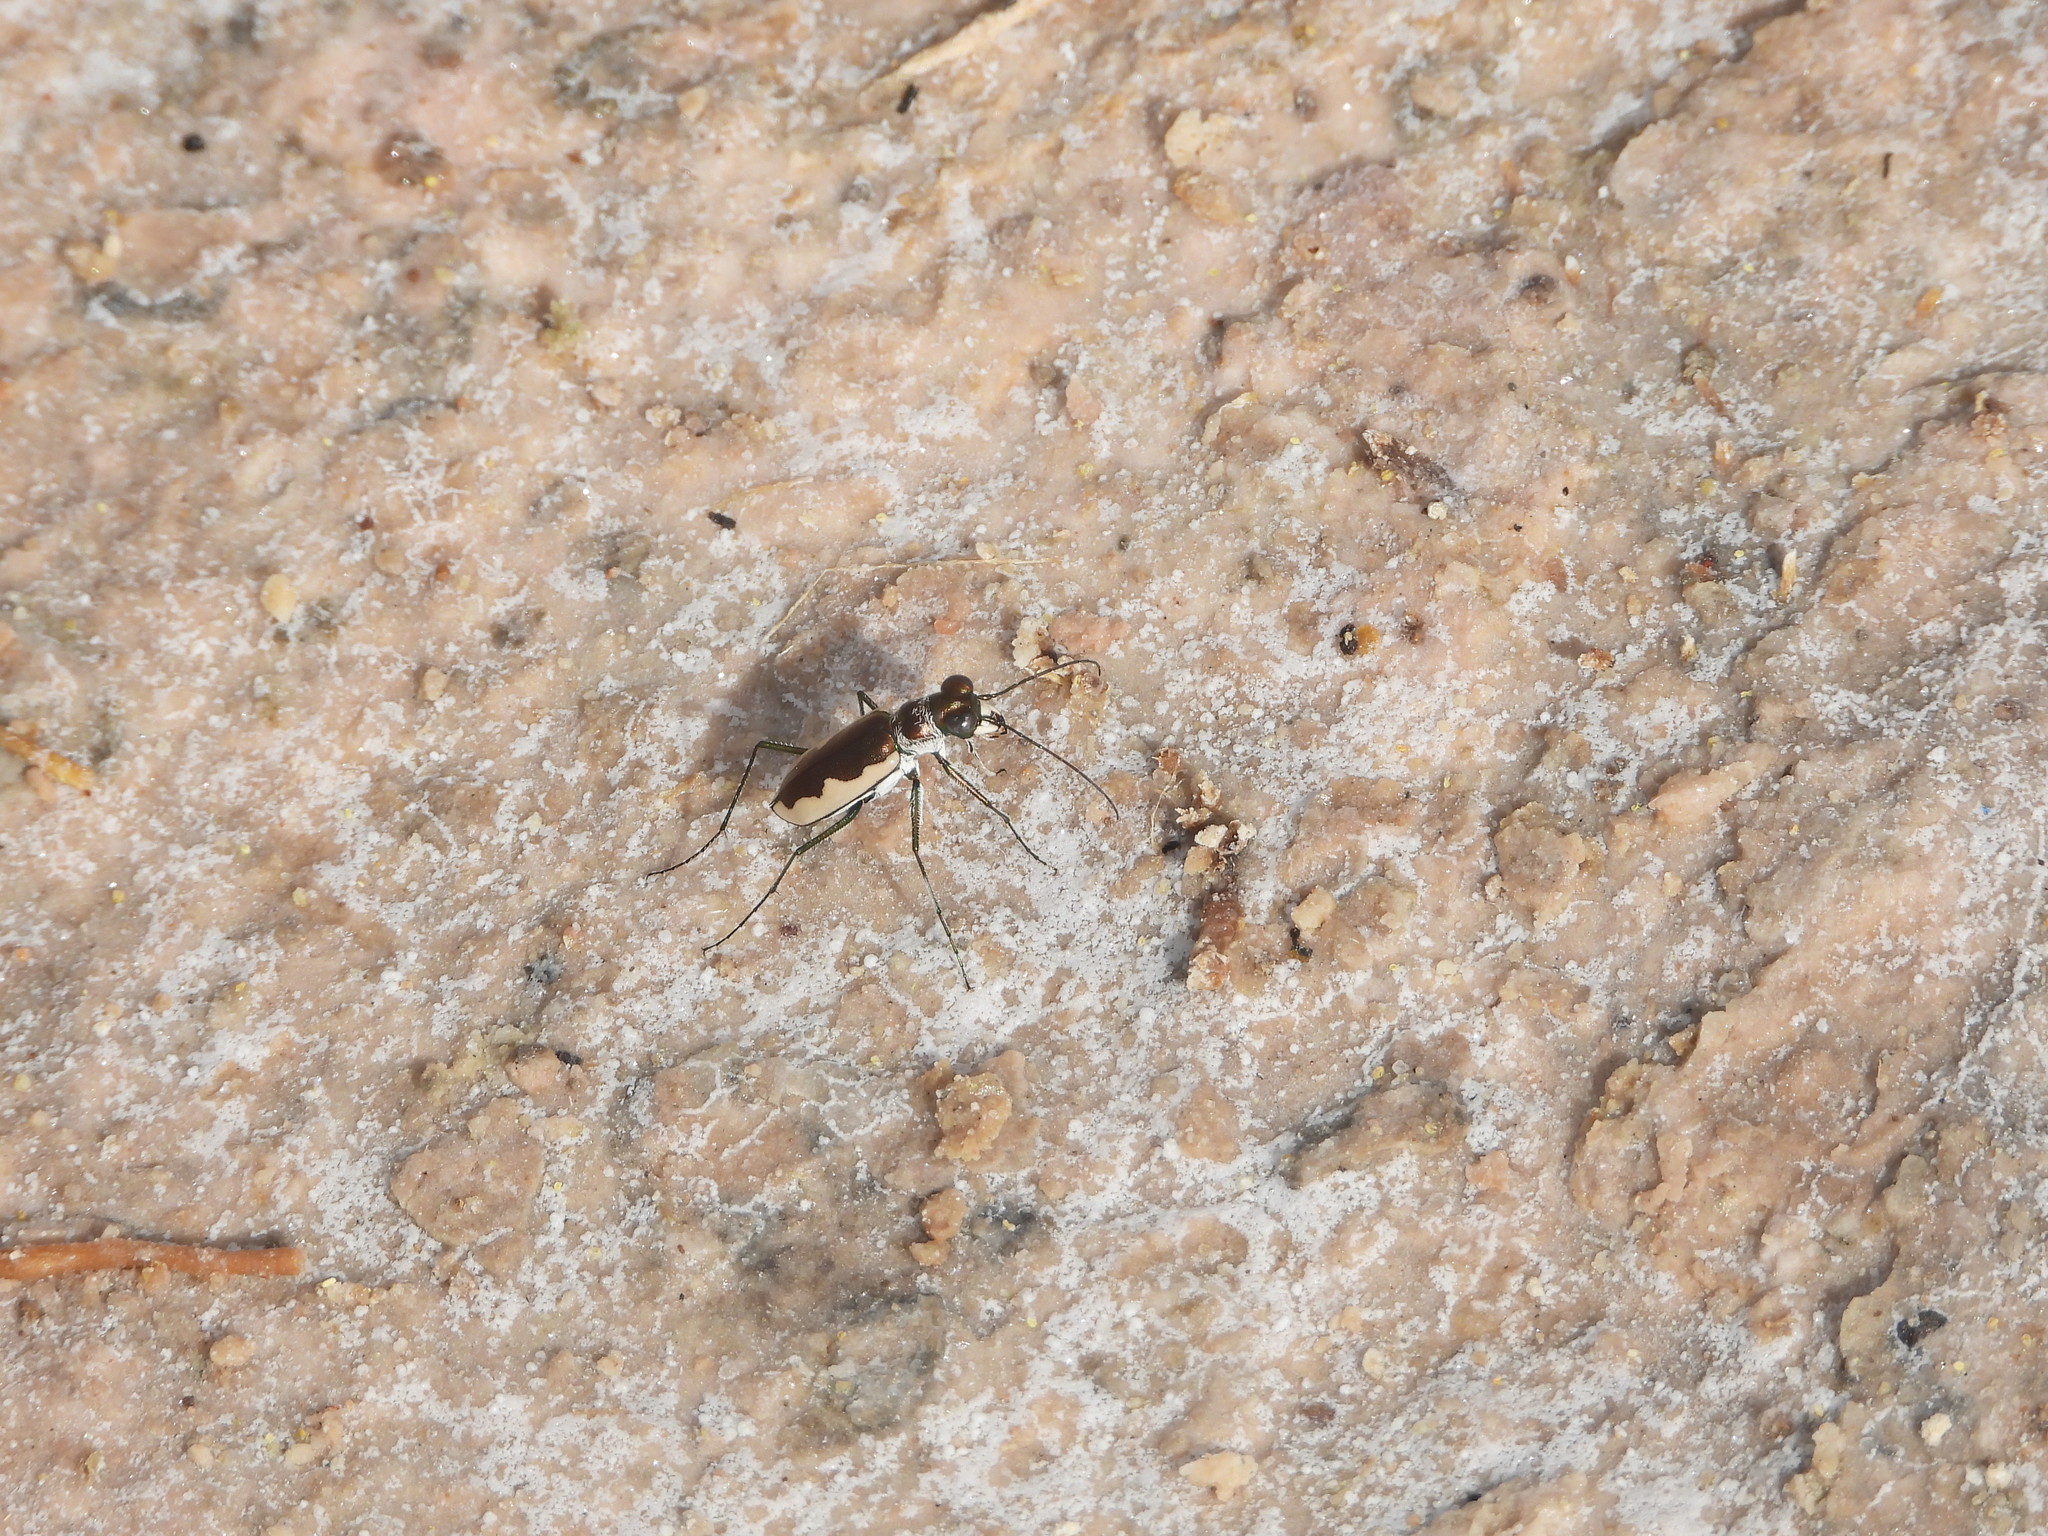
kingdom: Animalia
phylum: Arthropoda
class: Insecta
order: Coleoptera
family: Carabidae
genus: Eunota
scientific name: Eunota circumpicta
